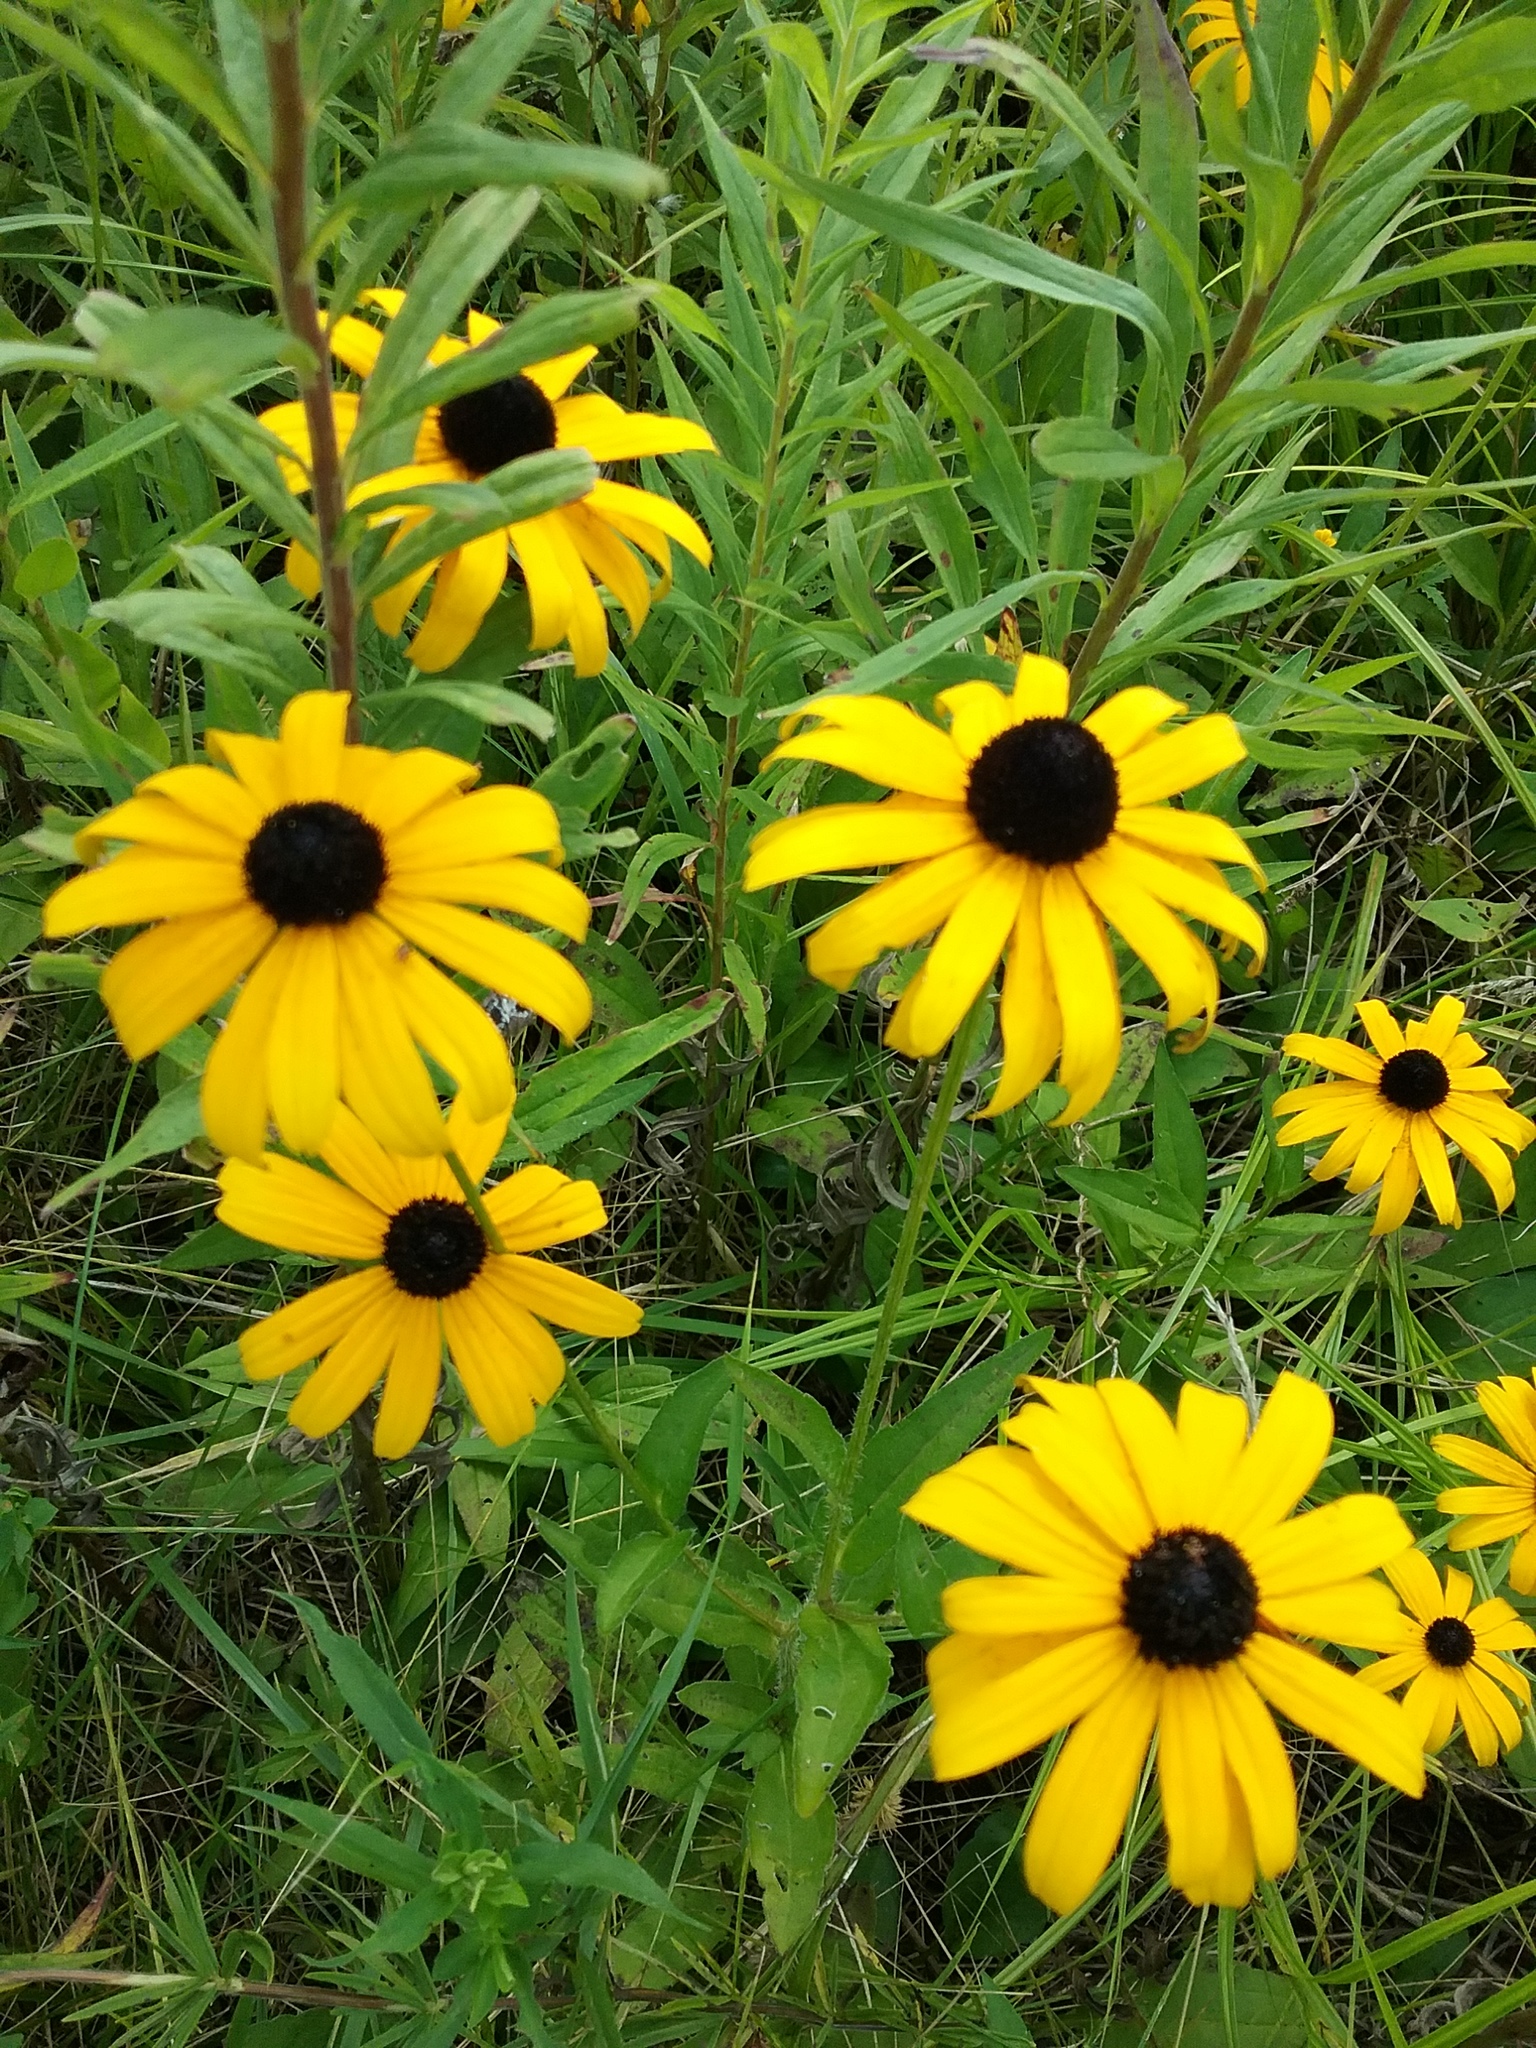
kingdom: Plantae
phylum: Tracheophyta
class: Magnoliopsida
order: Asterales
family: Asteraceae
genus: Rudbeckia
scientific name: Rudbeckia fulgida
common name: Perennial coneflower
